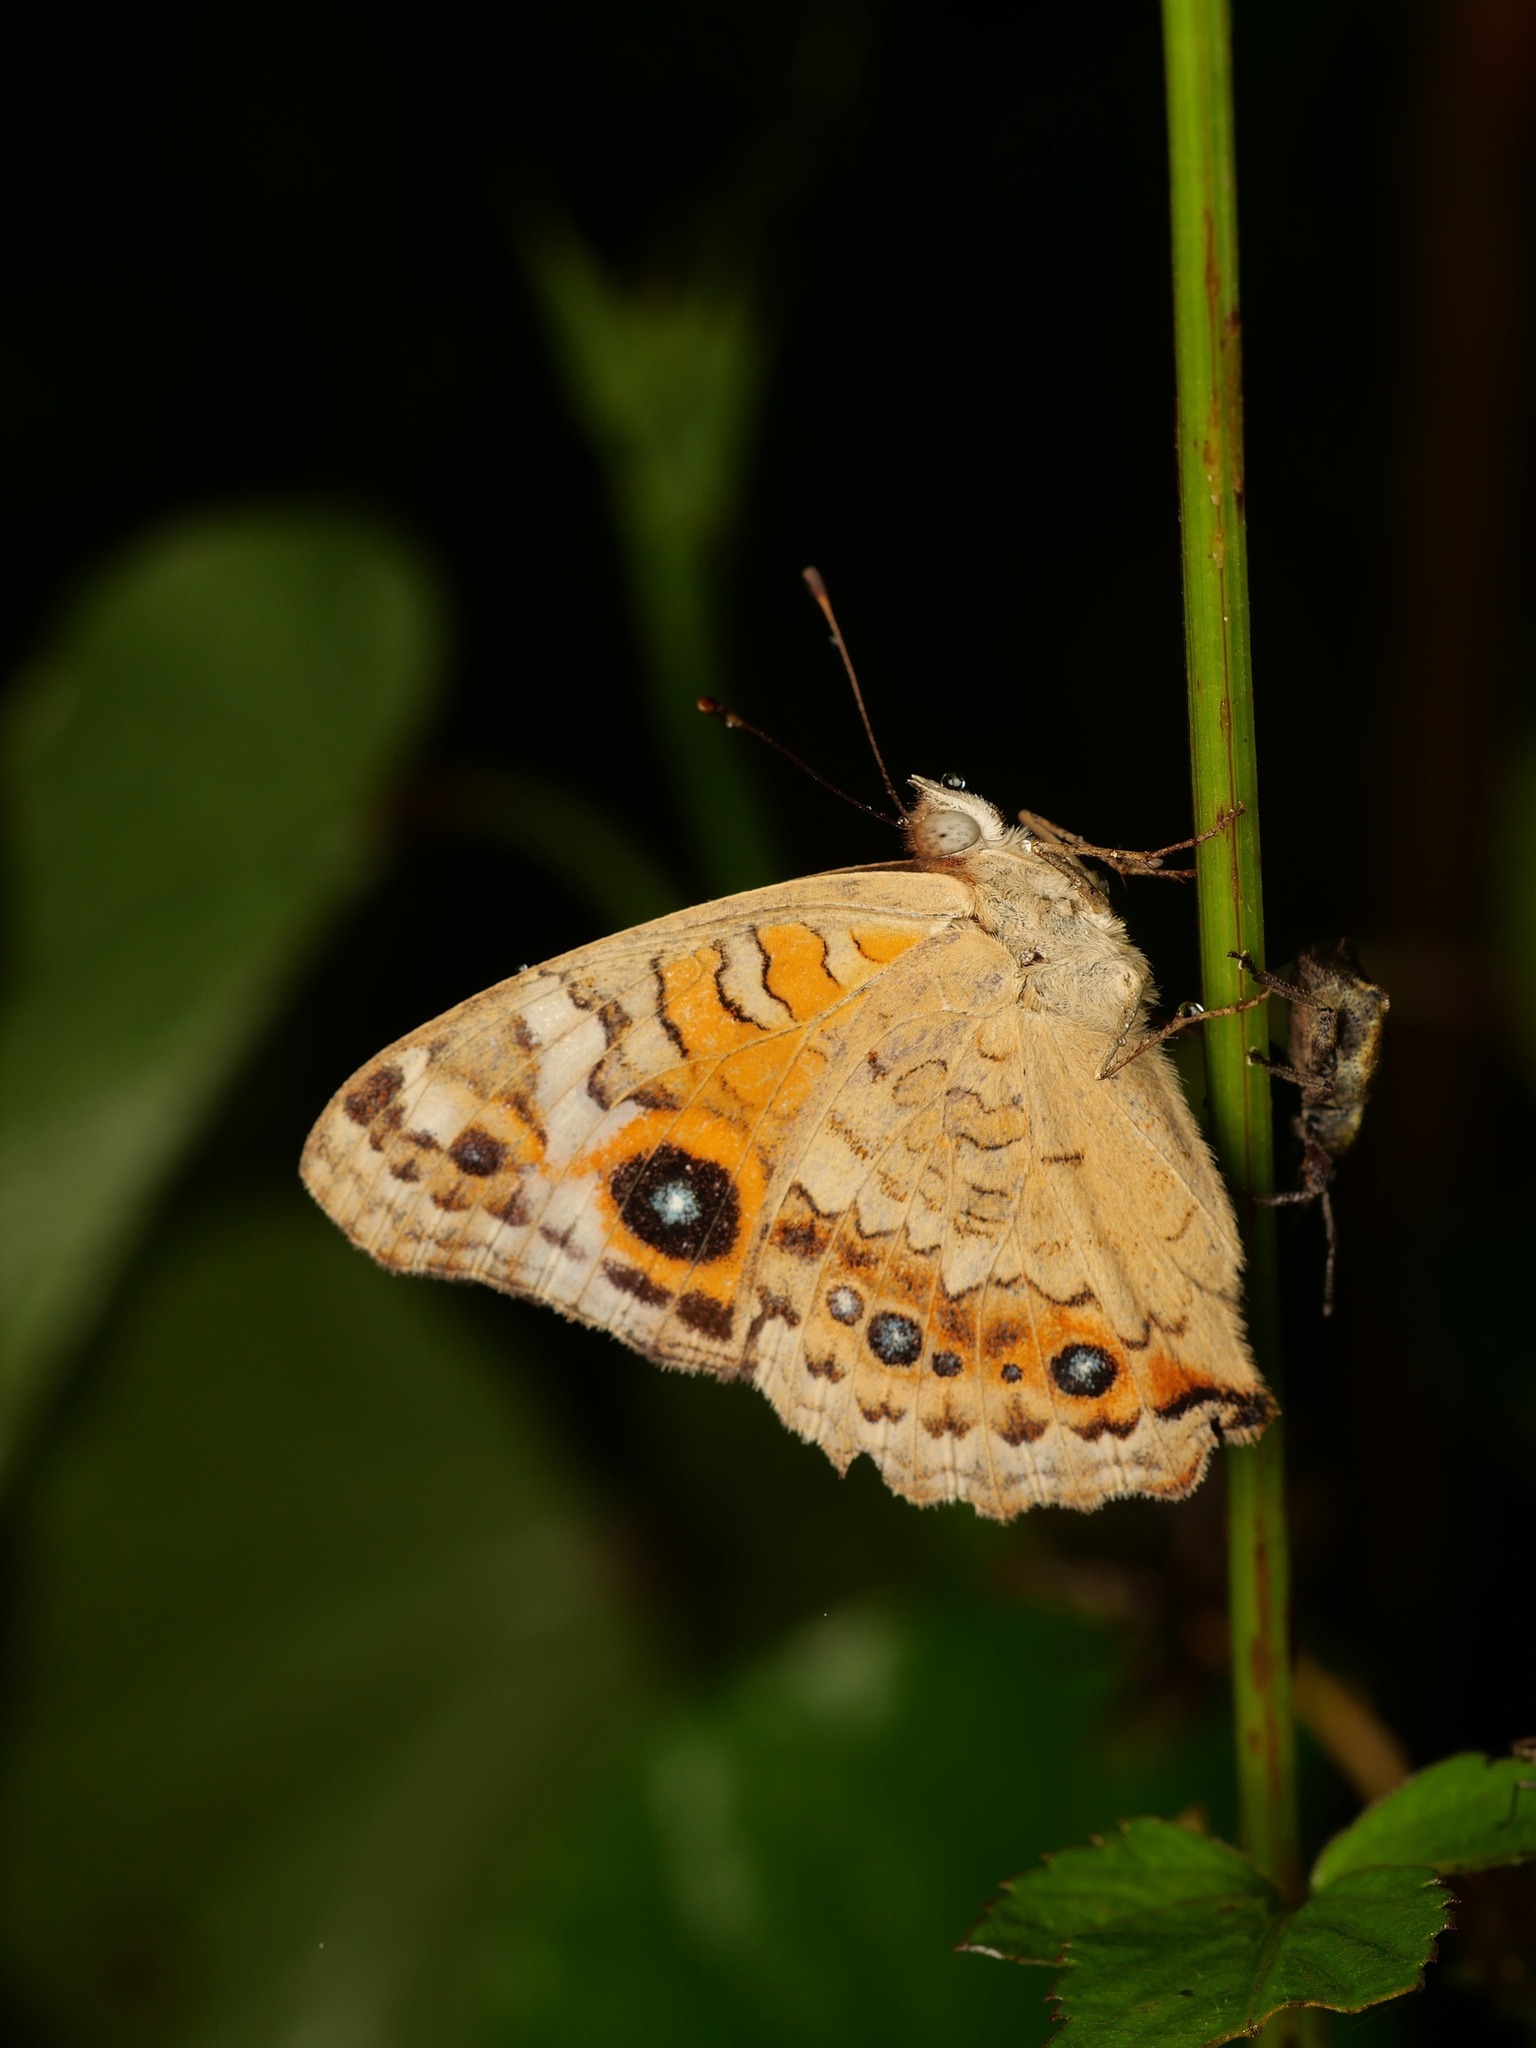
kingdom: Animalia
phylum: Arthropoda
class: Insecta
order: Lepidoptera
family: Nymphalidae
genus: Junonia
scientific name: Junonia villida
